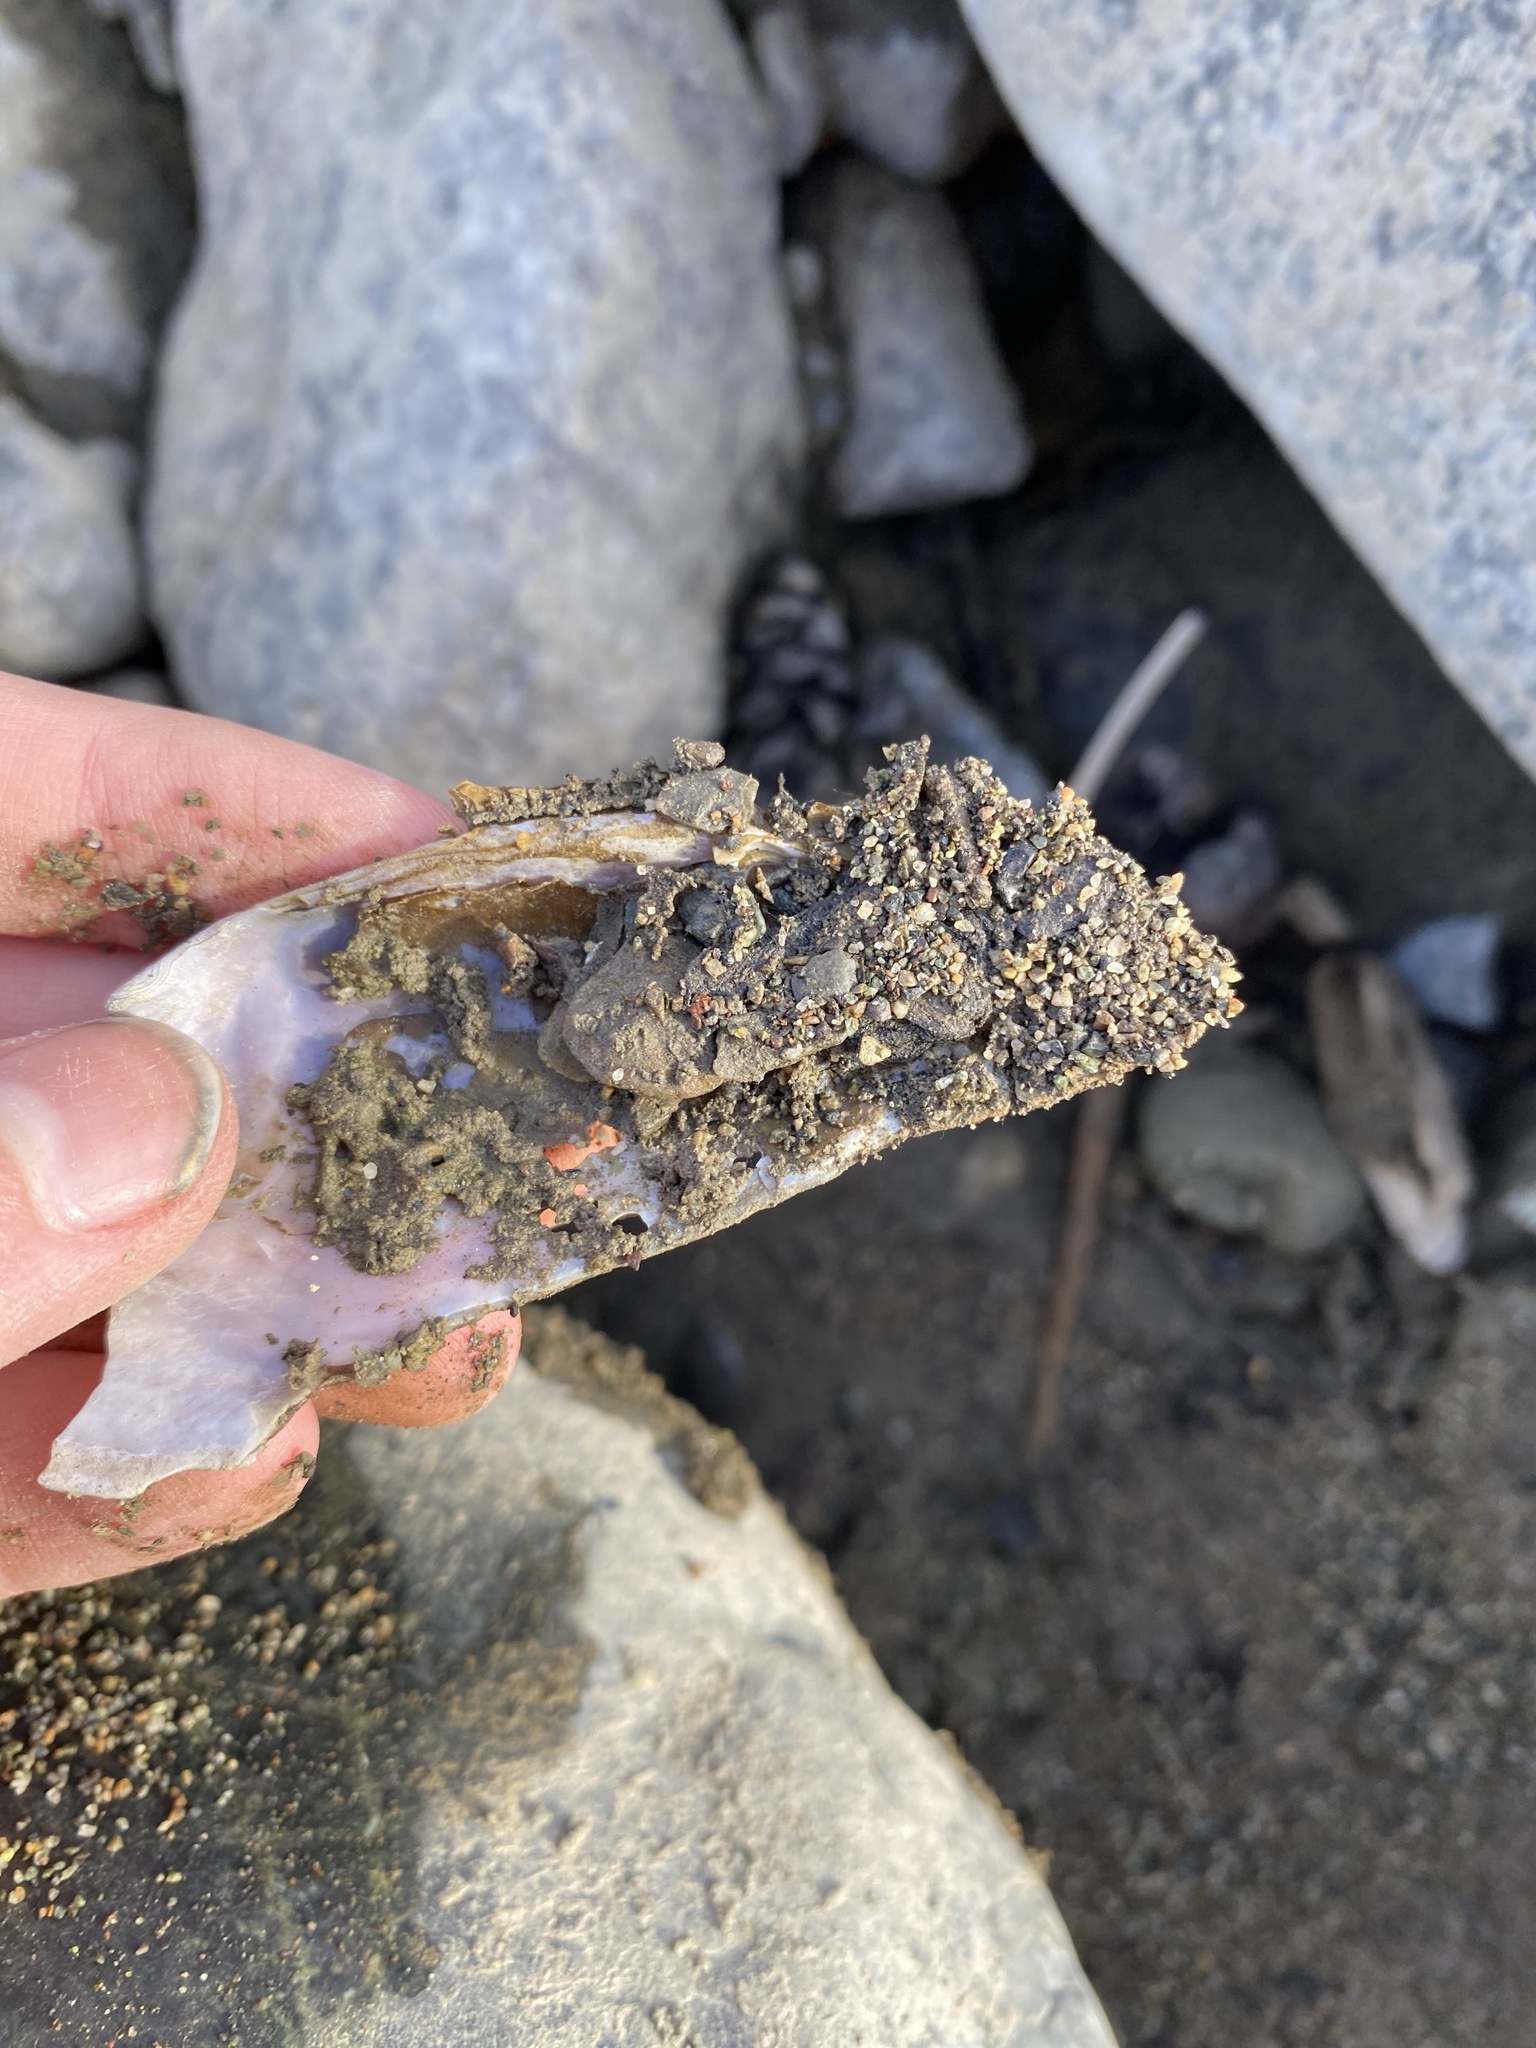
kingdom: Animalia
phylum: Mollusca
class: Bivalvia
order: Unionida
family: Margaritiferidae
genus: Margaritifera
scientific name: Margaritifera falcata
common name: Western pearlshell
